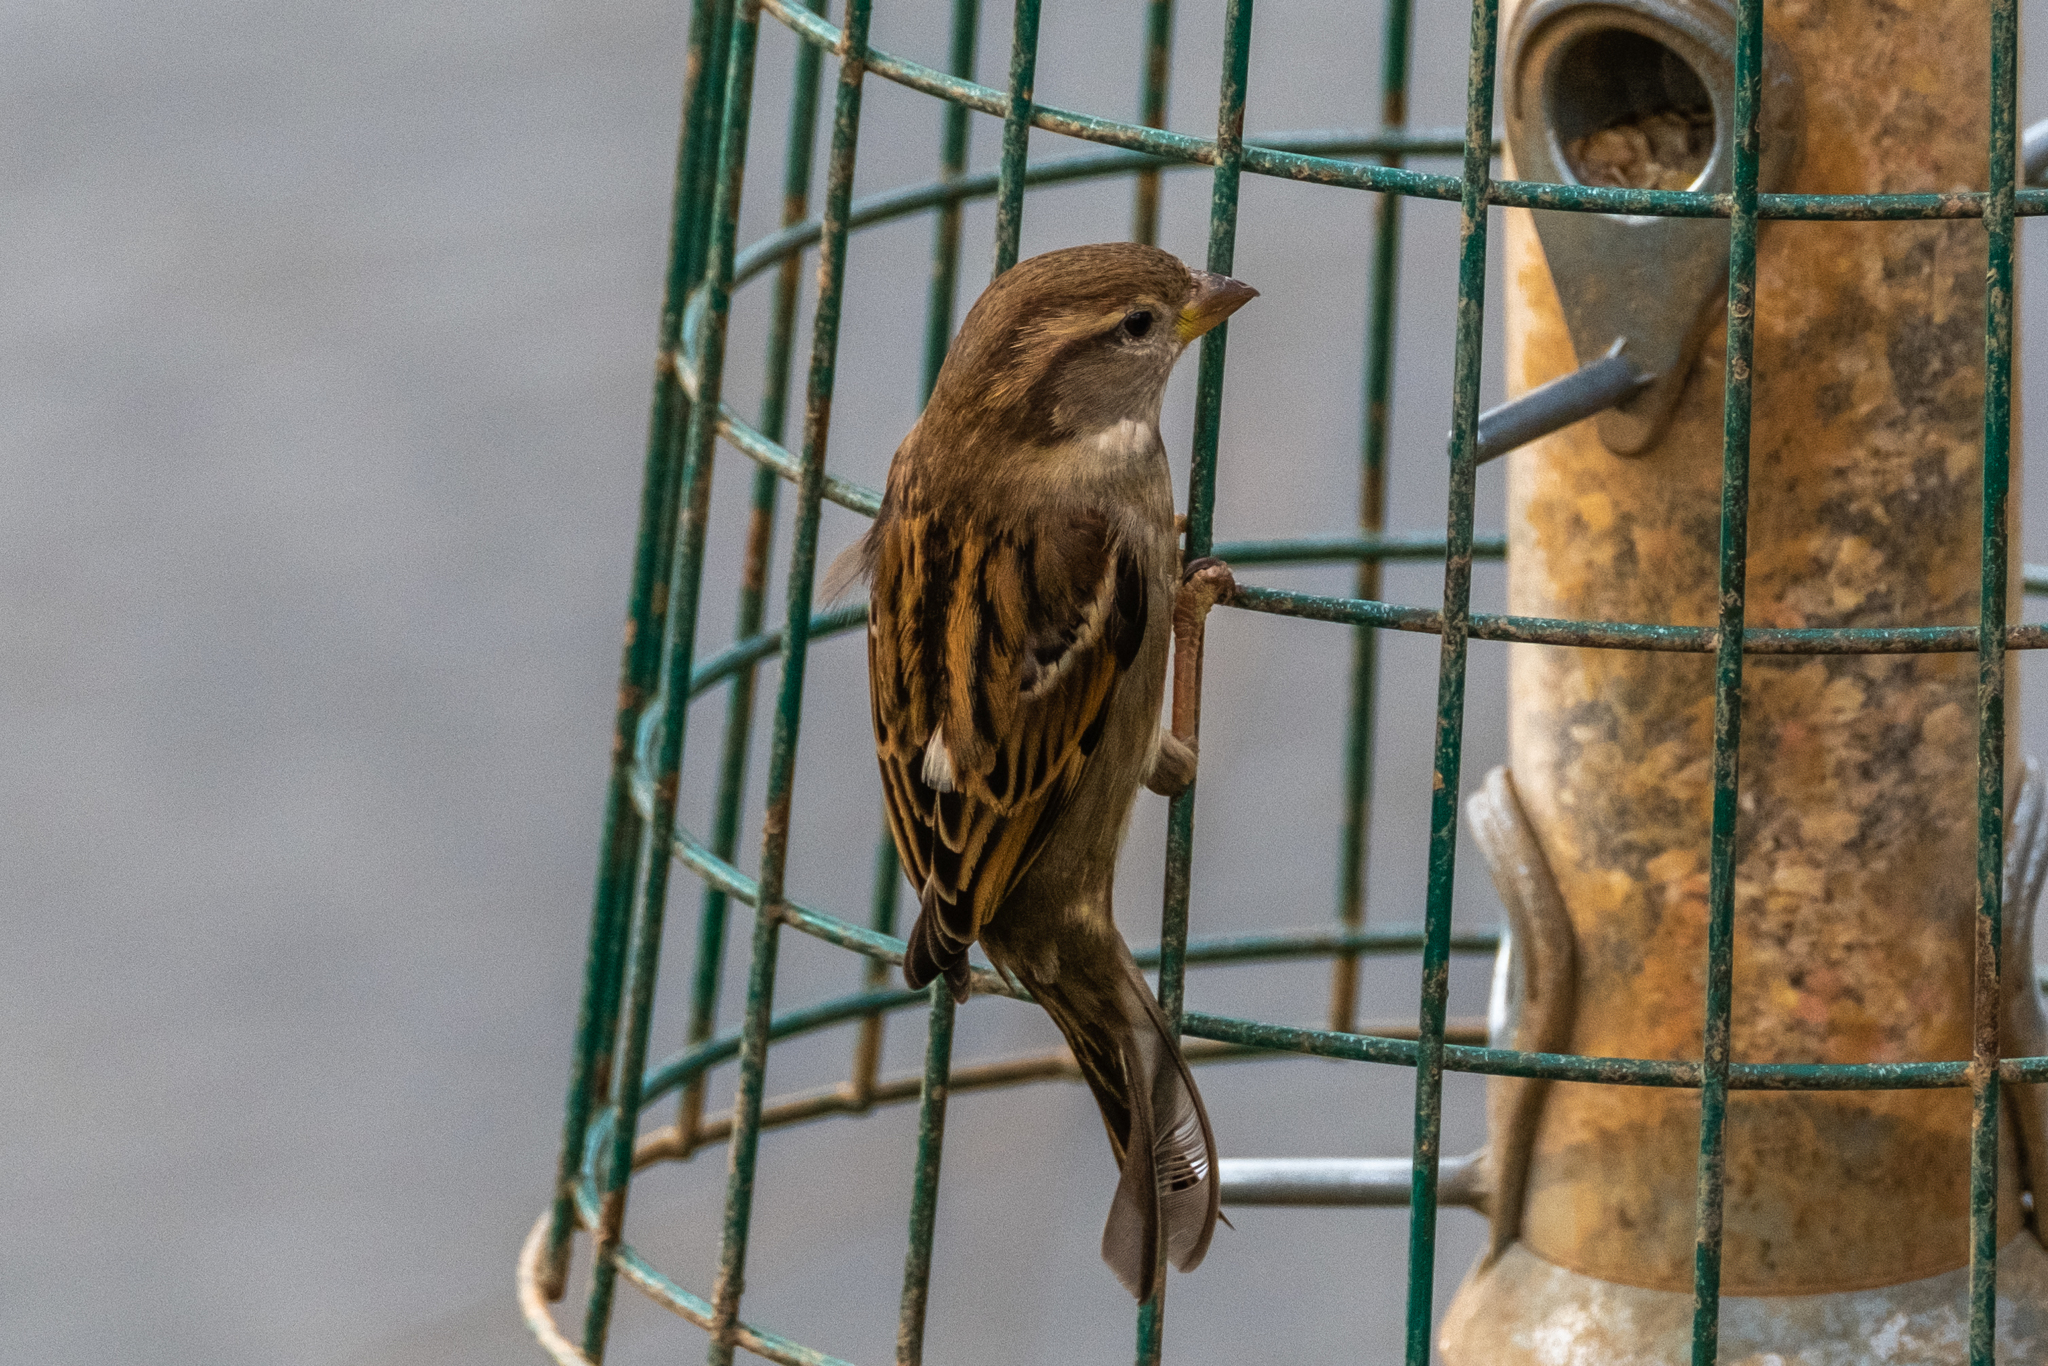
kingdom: Animalia
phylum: Chordata
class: Aves
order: Passeriformes
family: Passeridae
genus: Passer
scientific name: Passer domesticus
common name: House sparrow
